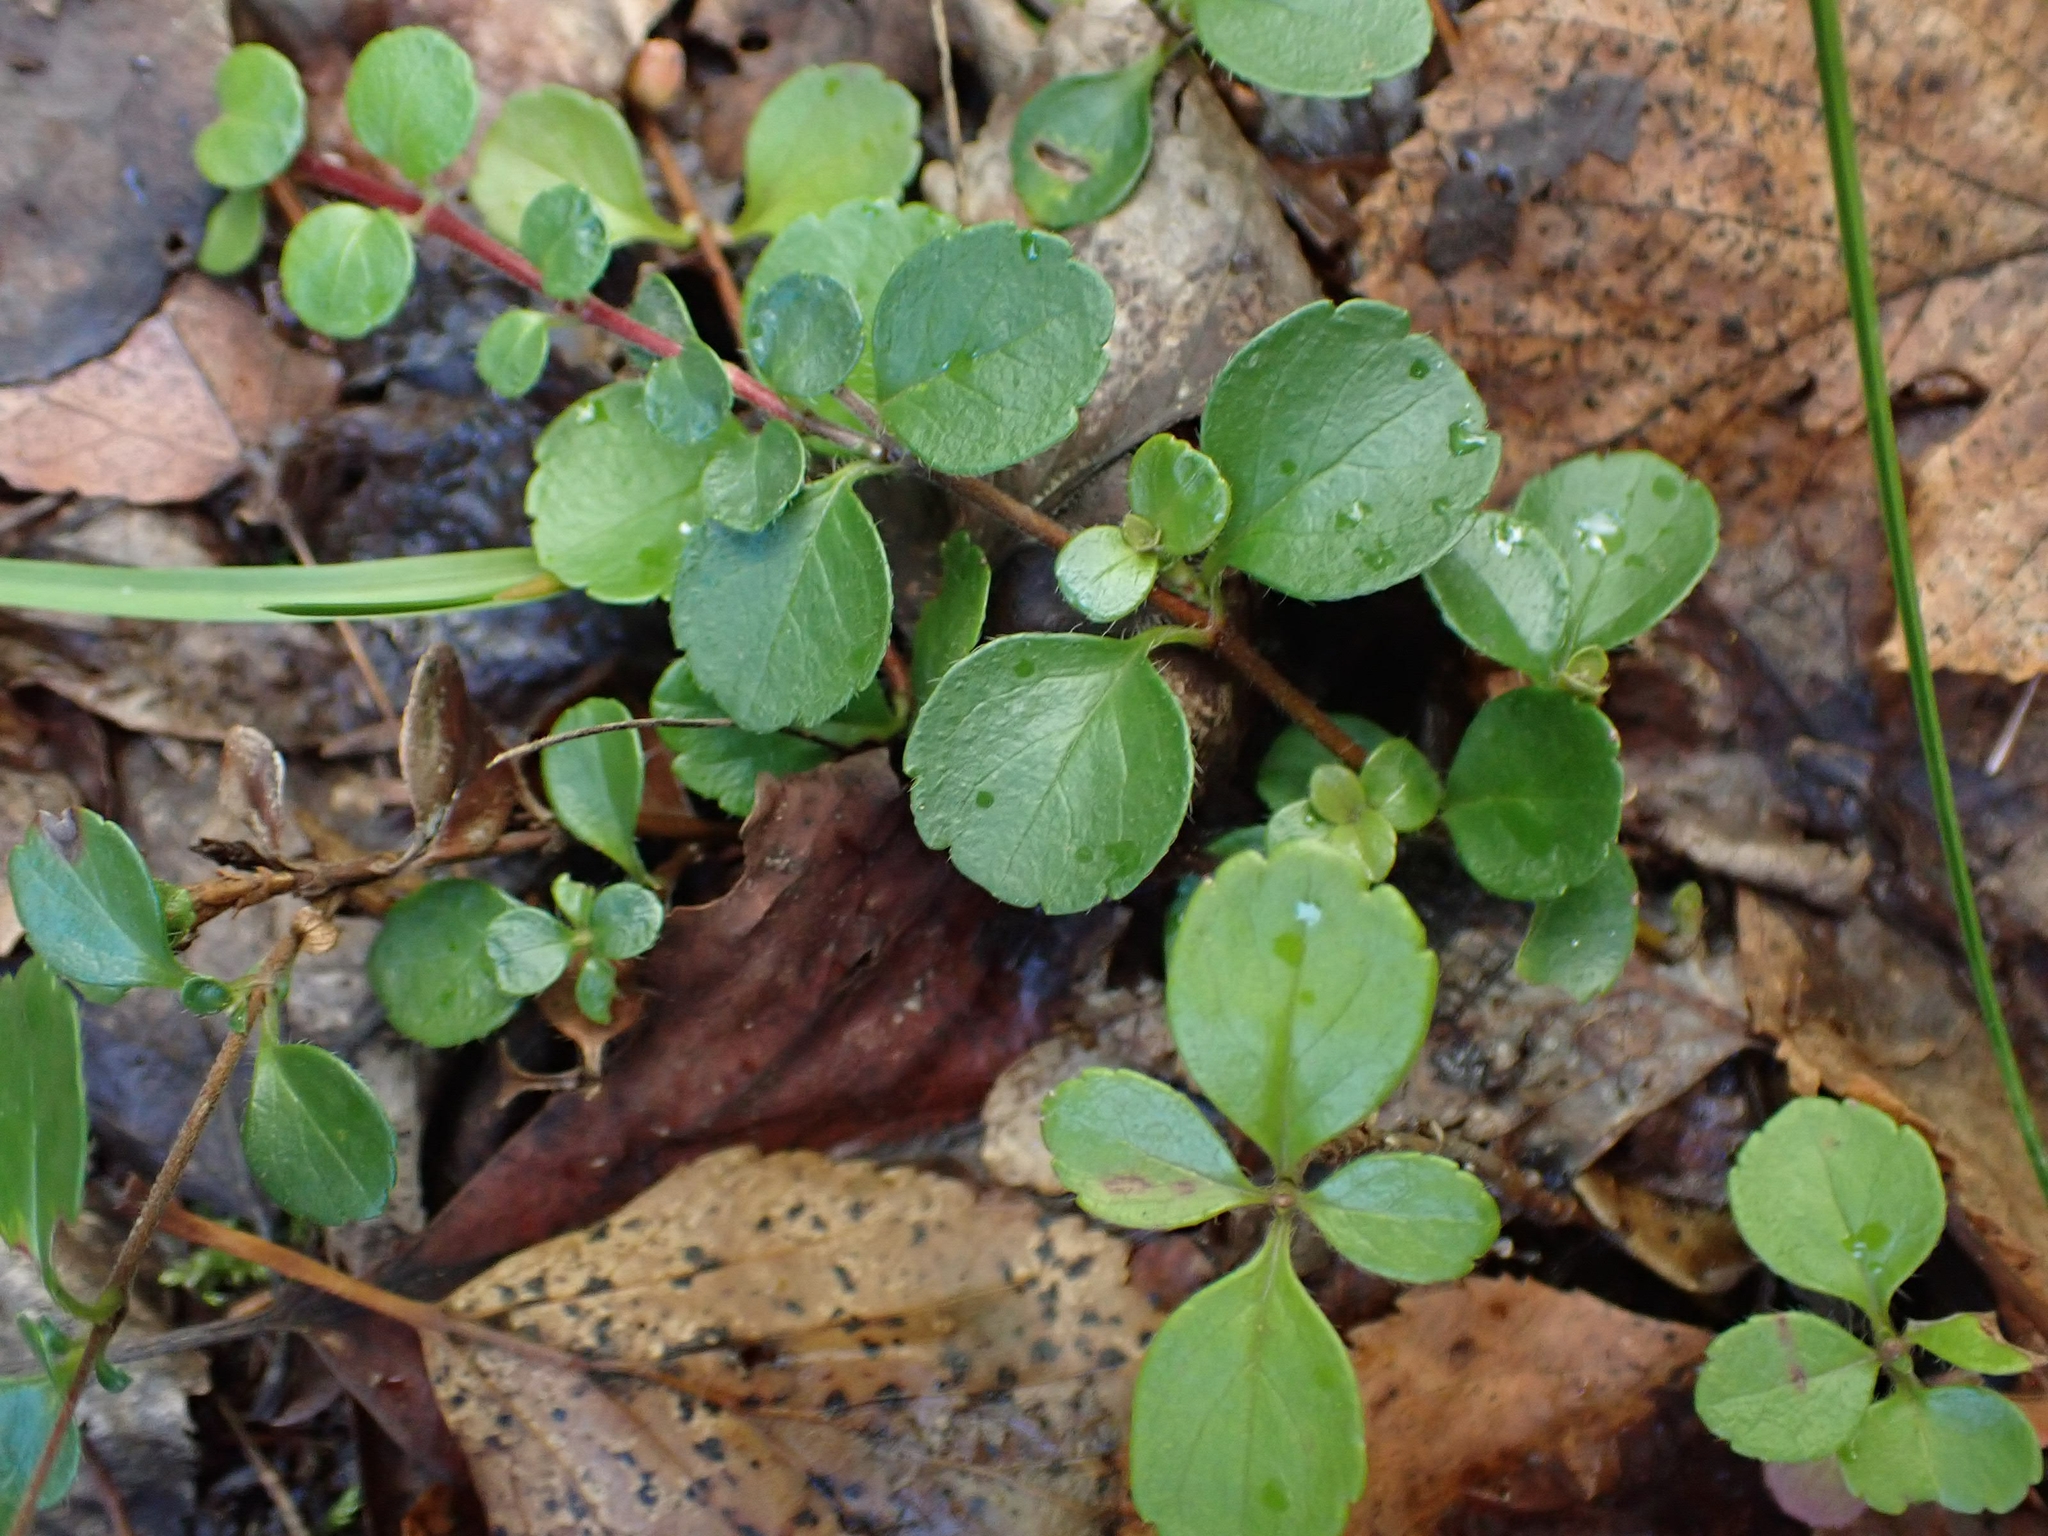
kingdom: Plantae
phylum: Tracheophyta
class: Magnoliopsida
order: Dipsacales
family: Caprifoliaceae
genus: Linnaea
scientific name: Linnaea borealis
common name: Twinflower
